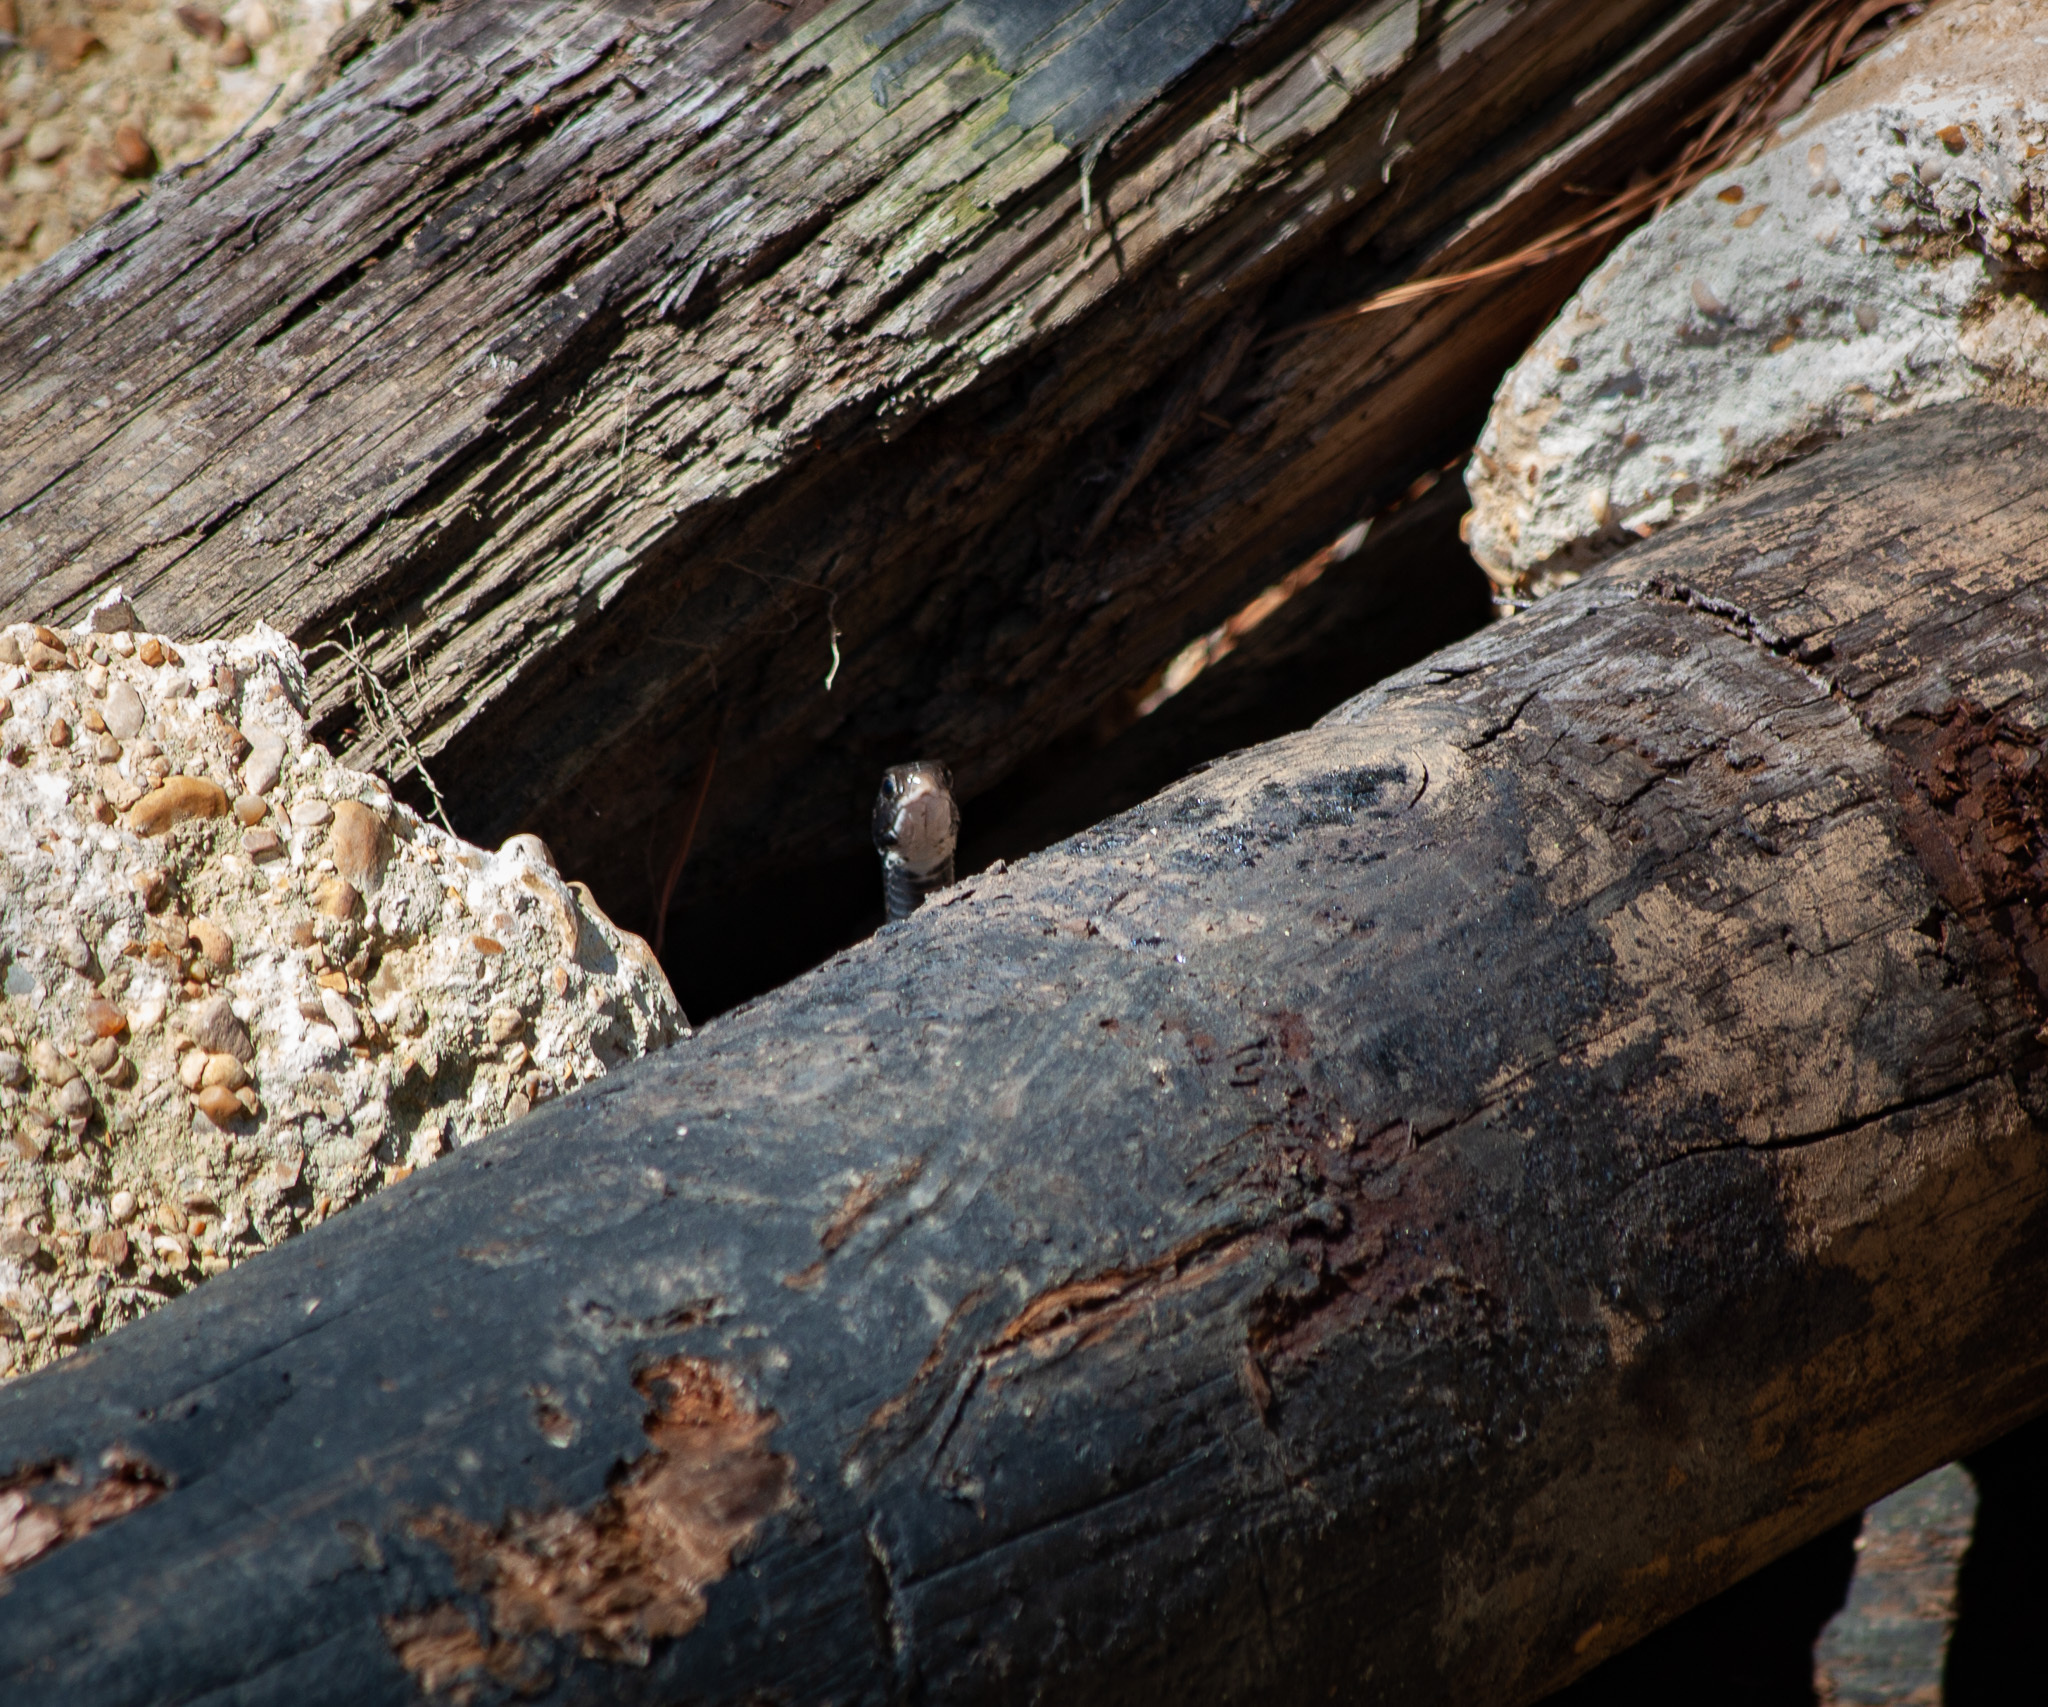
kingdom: Animalia
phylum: Chordata
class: Squamata
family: Colubridae
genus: Coluber
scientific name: Coluber constrictor
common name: Eastern racer
